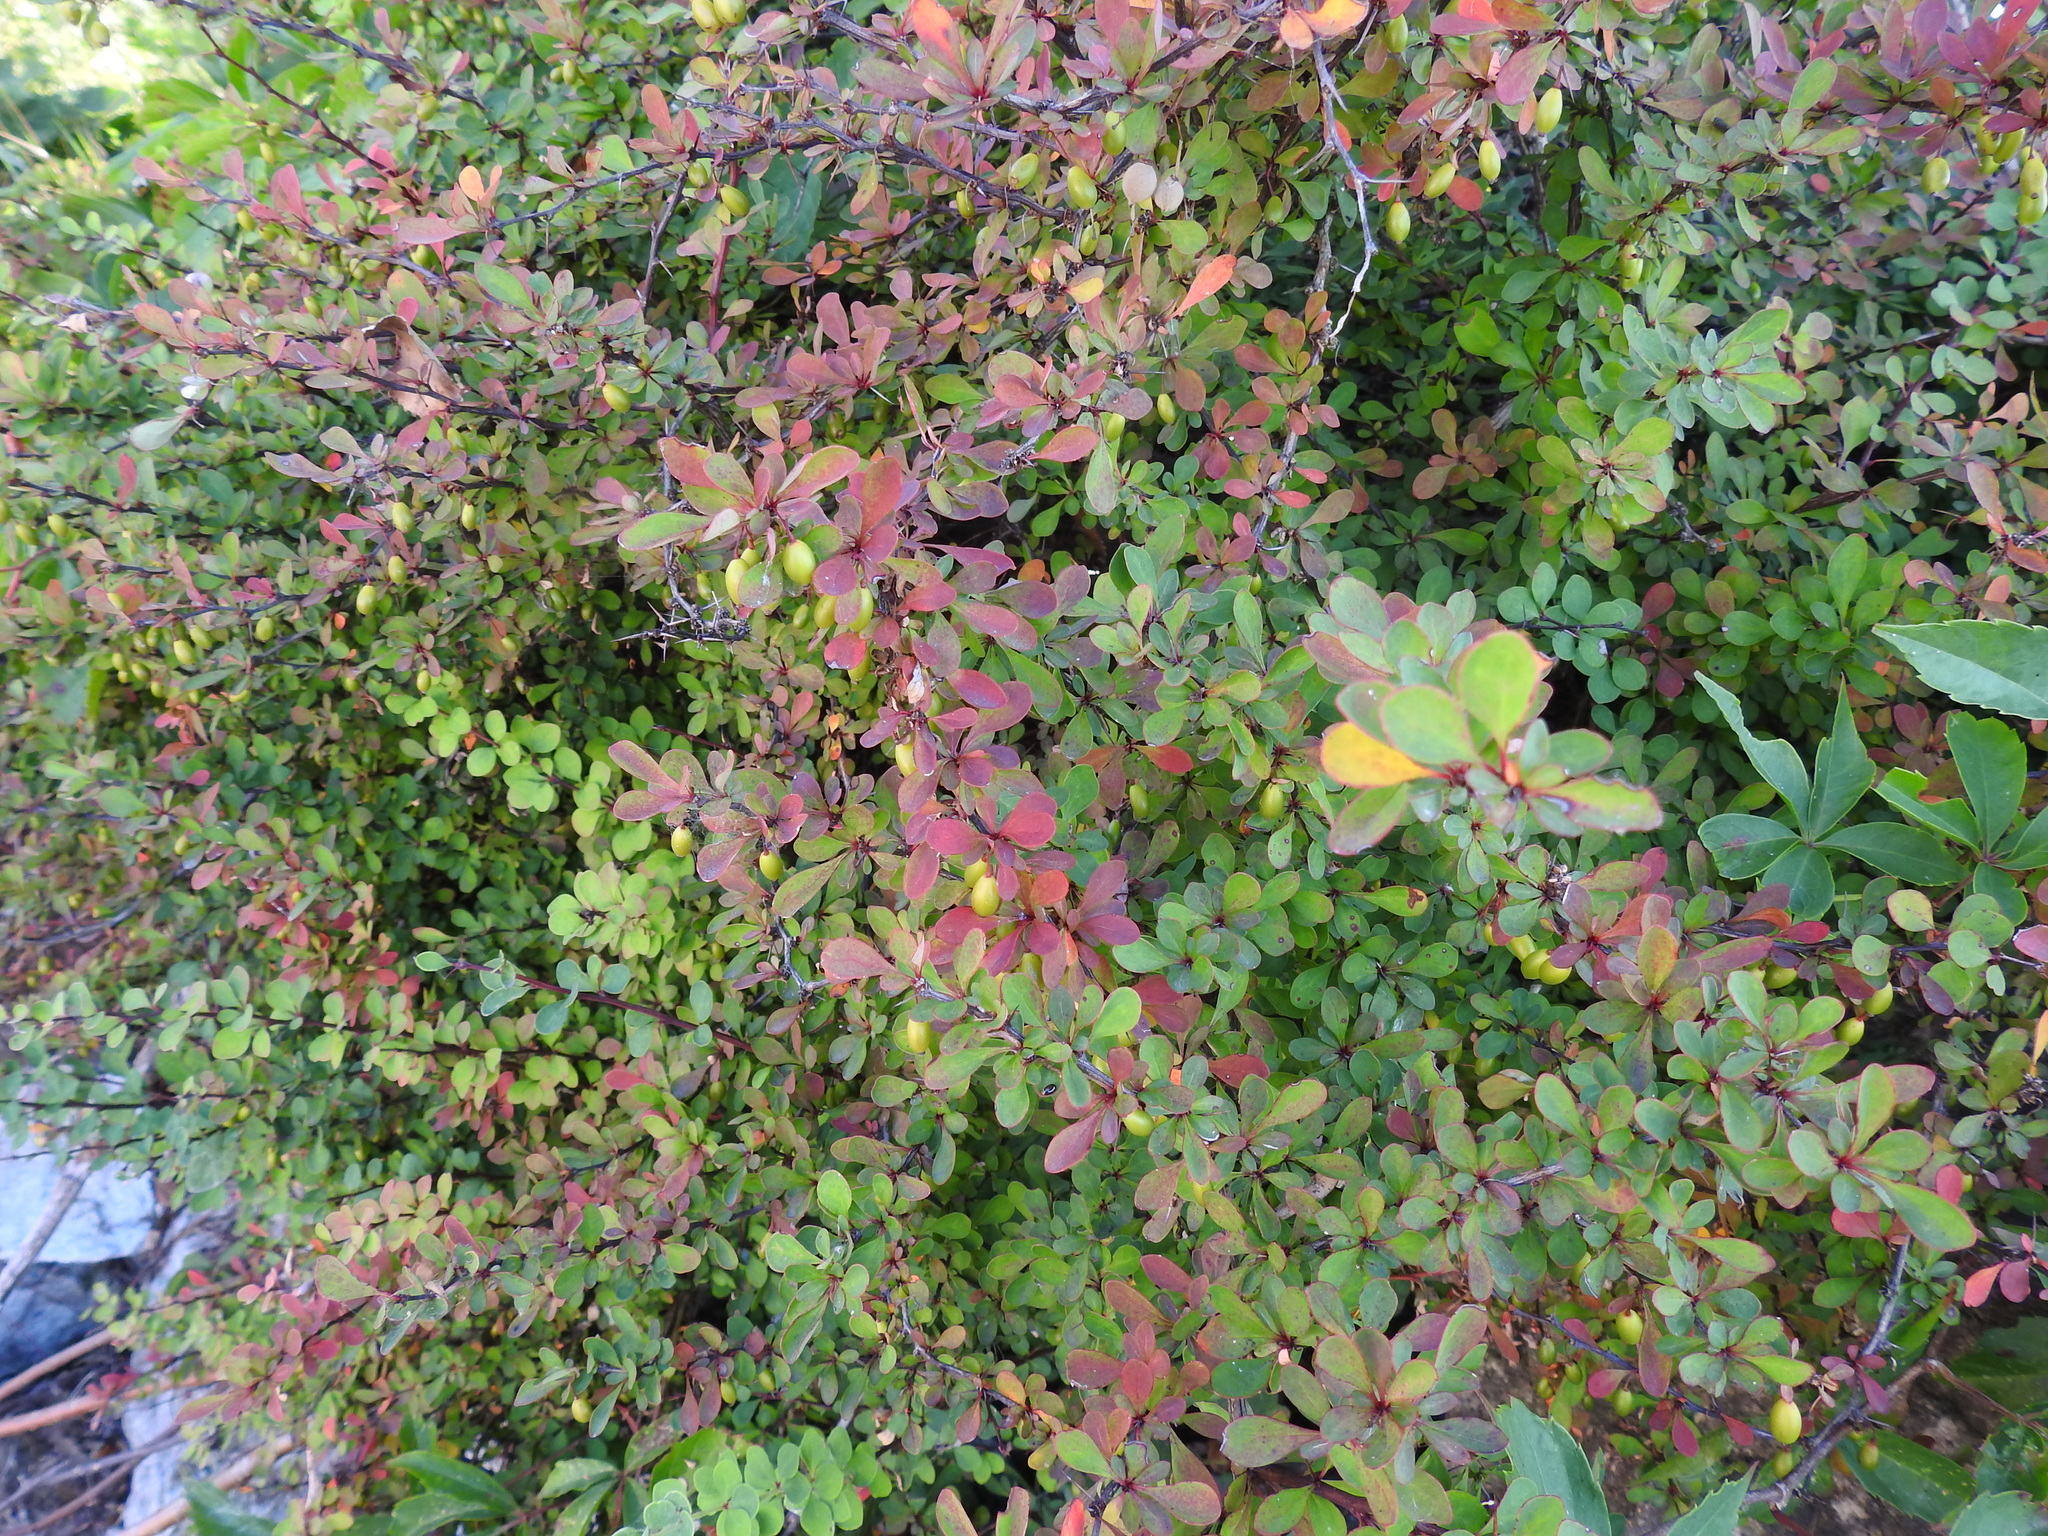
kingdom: Plantae
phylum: Tracheophyta
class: Magnoliopsida
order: Ranunculales
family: Berberidaceae
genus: Berberis
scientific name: Berberis thunbergii
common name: Japanese barberry
